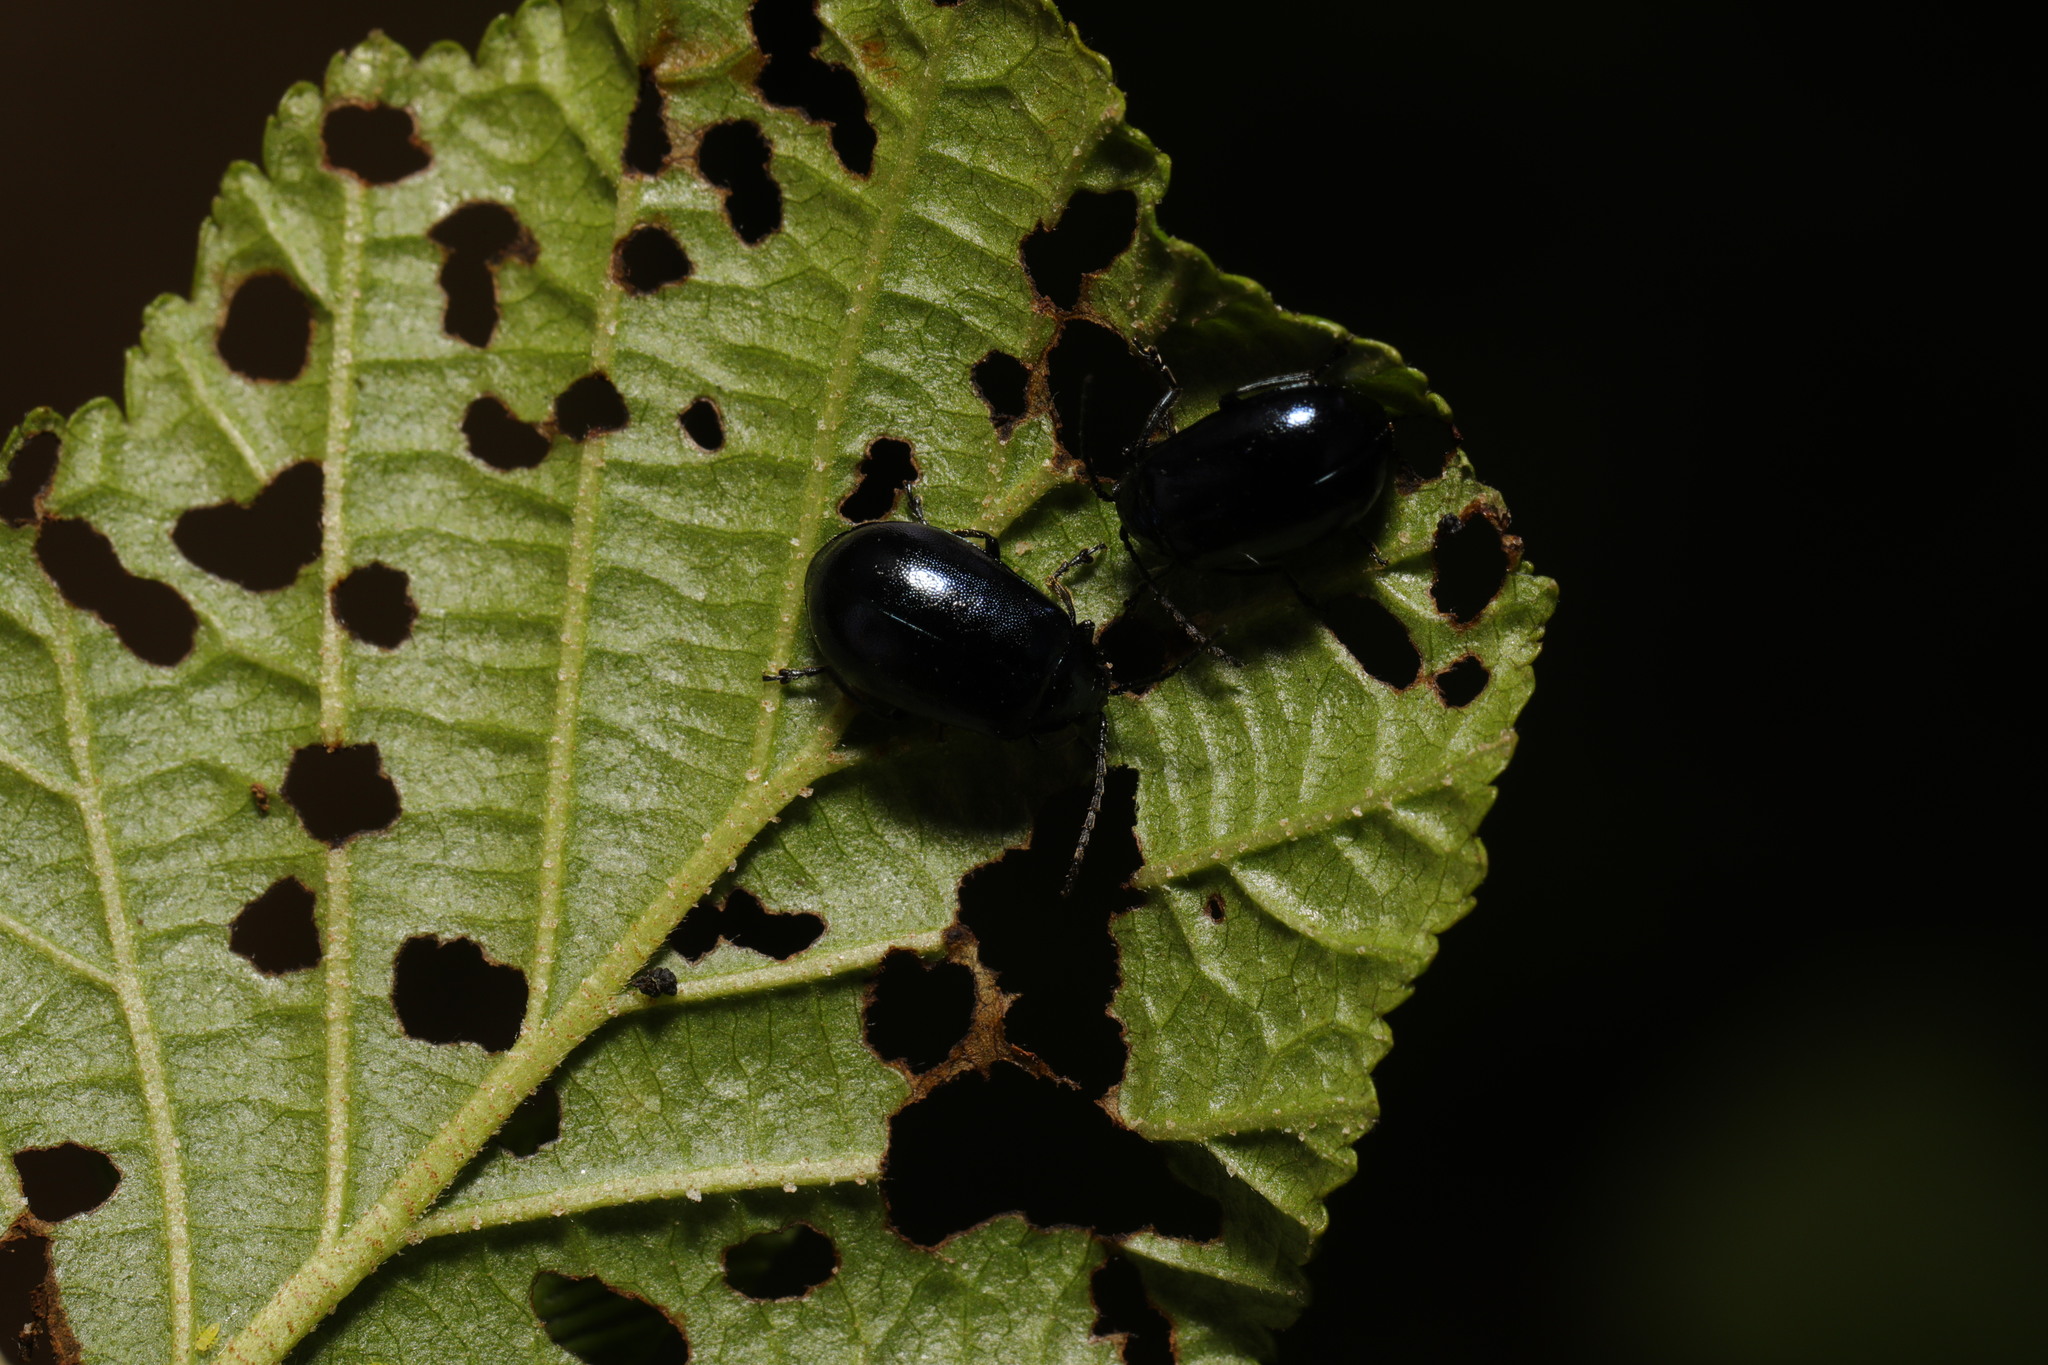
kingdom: Animalia
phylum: Arthropoda
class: Insecta
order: Coleoptera
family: Chrysomelidae
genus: Agelastica
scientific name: Agelastica alni
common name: Alder leaf beetle
